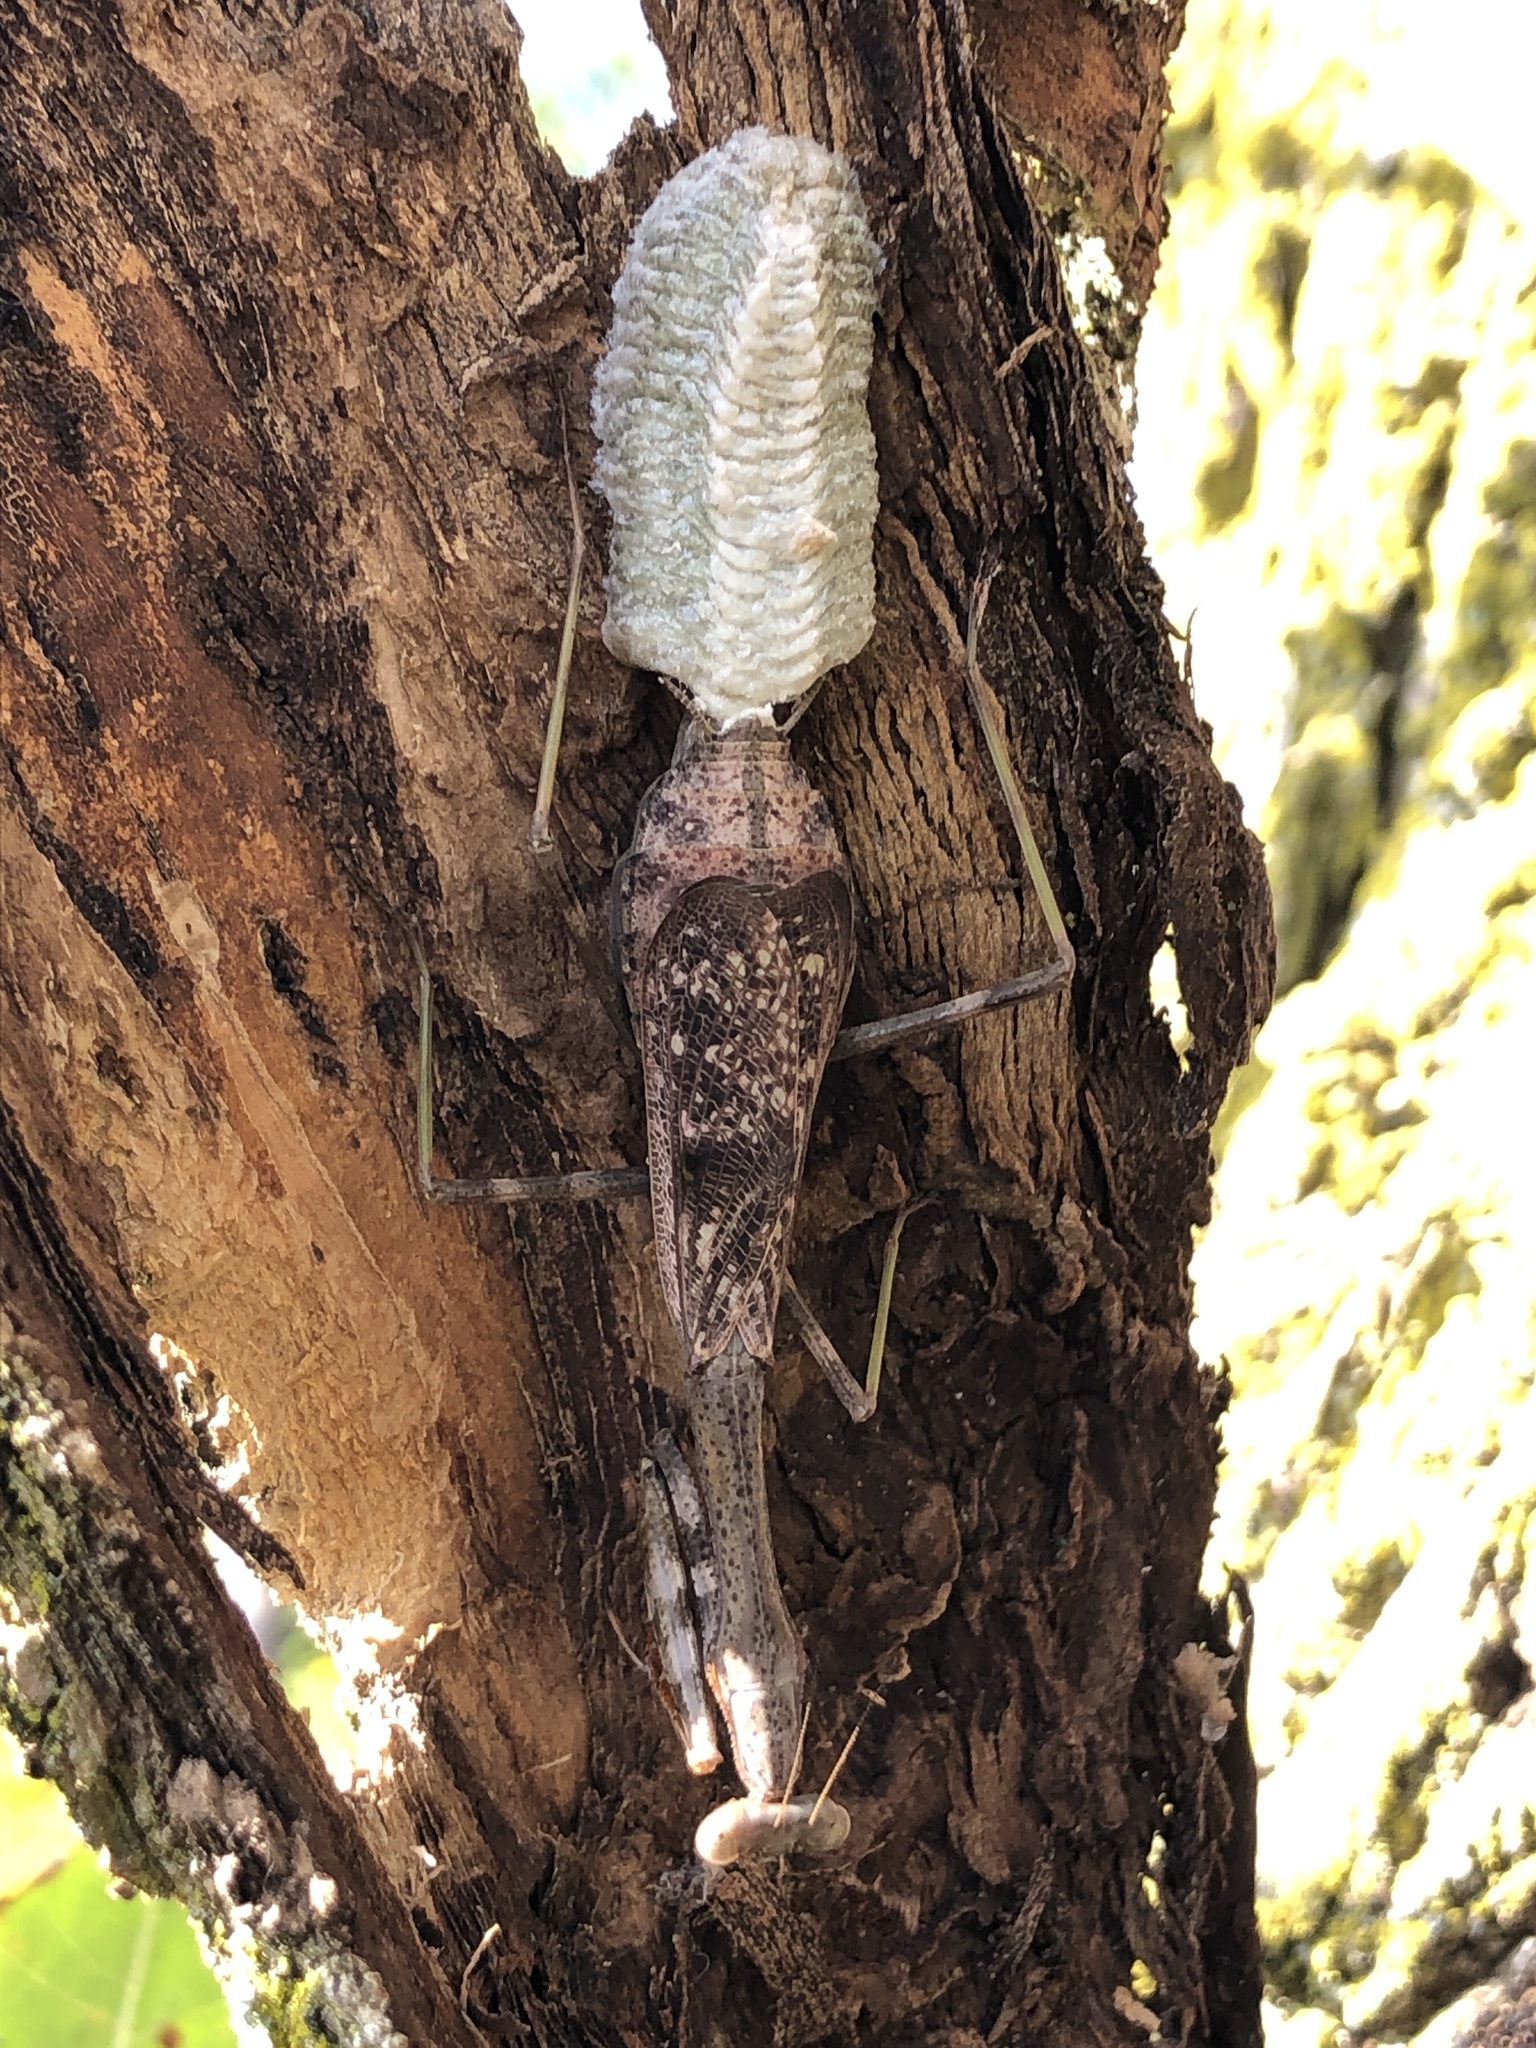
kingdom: Animalia
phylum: Arthropoda
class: Insecta
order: Mantodea
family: Mantidae
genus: Stagmomantis
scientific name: Stagmomantis carolina
